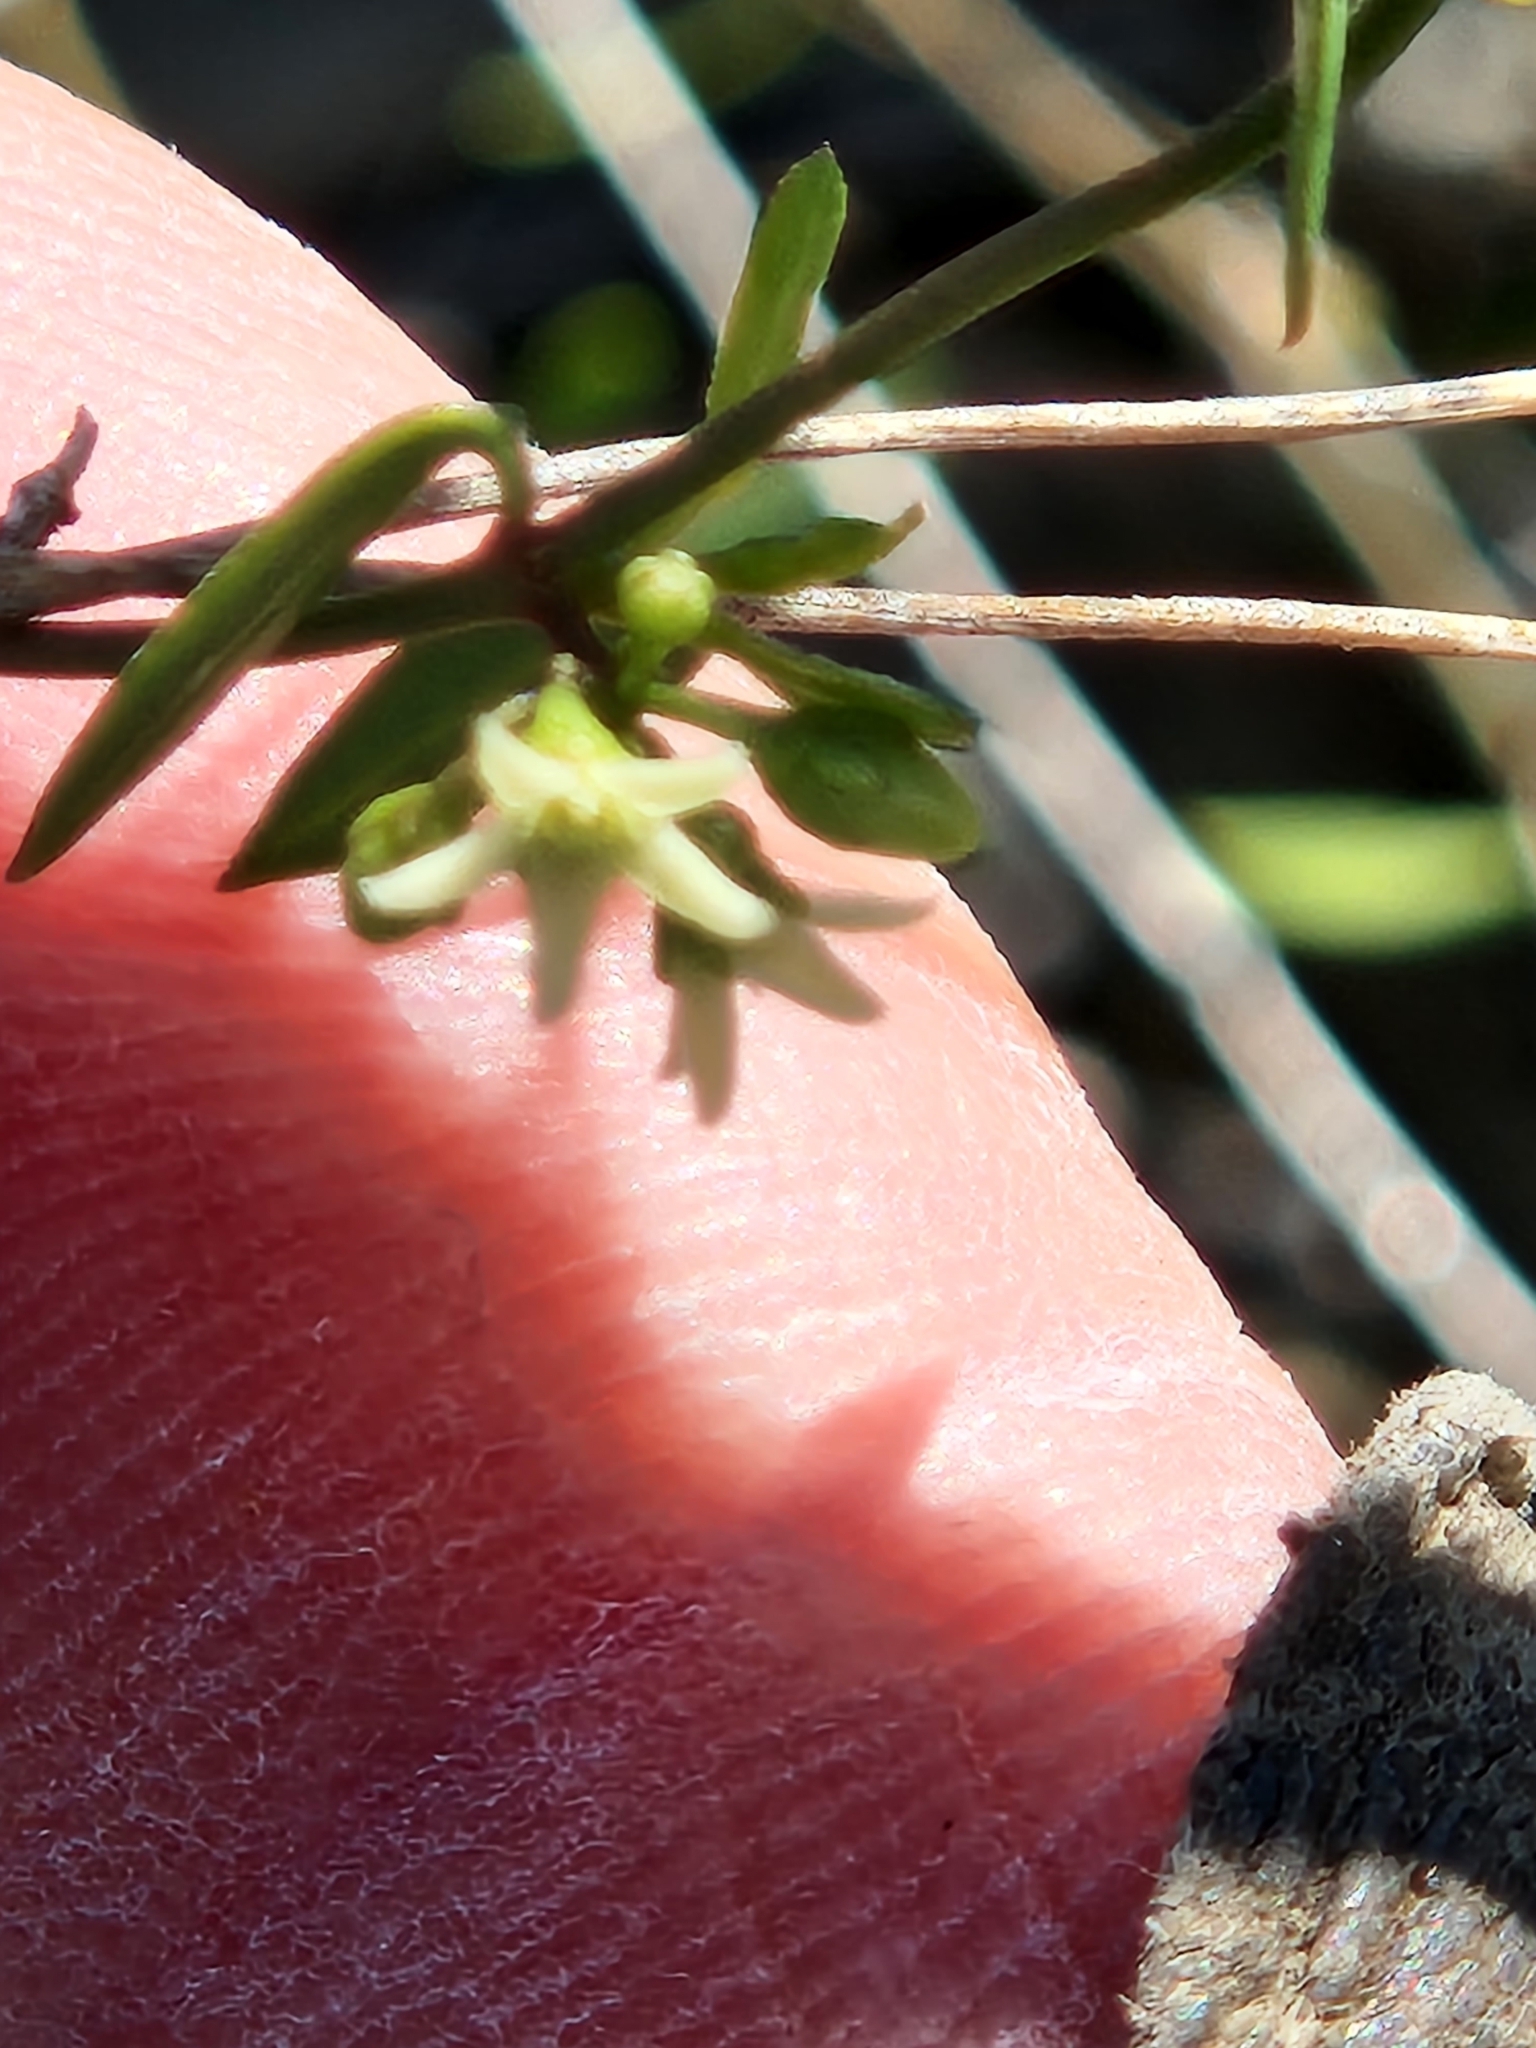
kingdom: Plantae
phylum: Tracheophyta
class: Magnoliopsida
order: Gentianales
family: Apocynaceae
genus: Metastelma
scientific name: Metastelma palmeri
